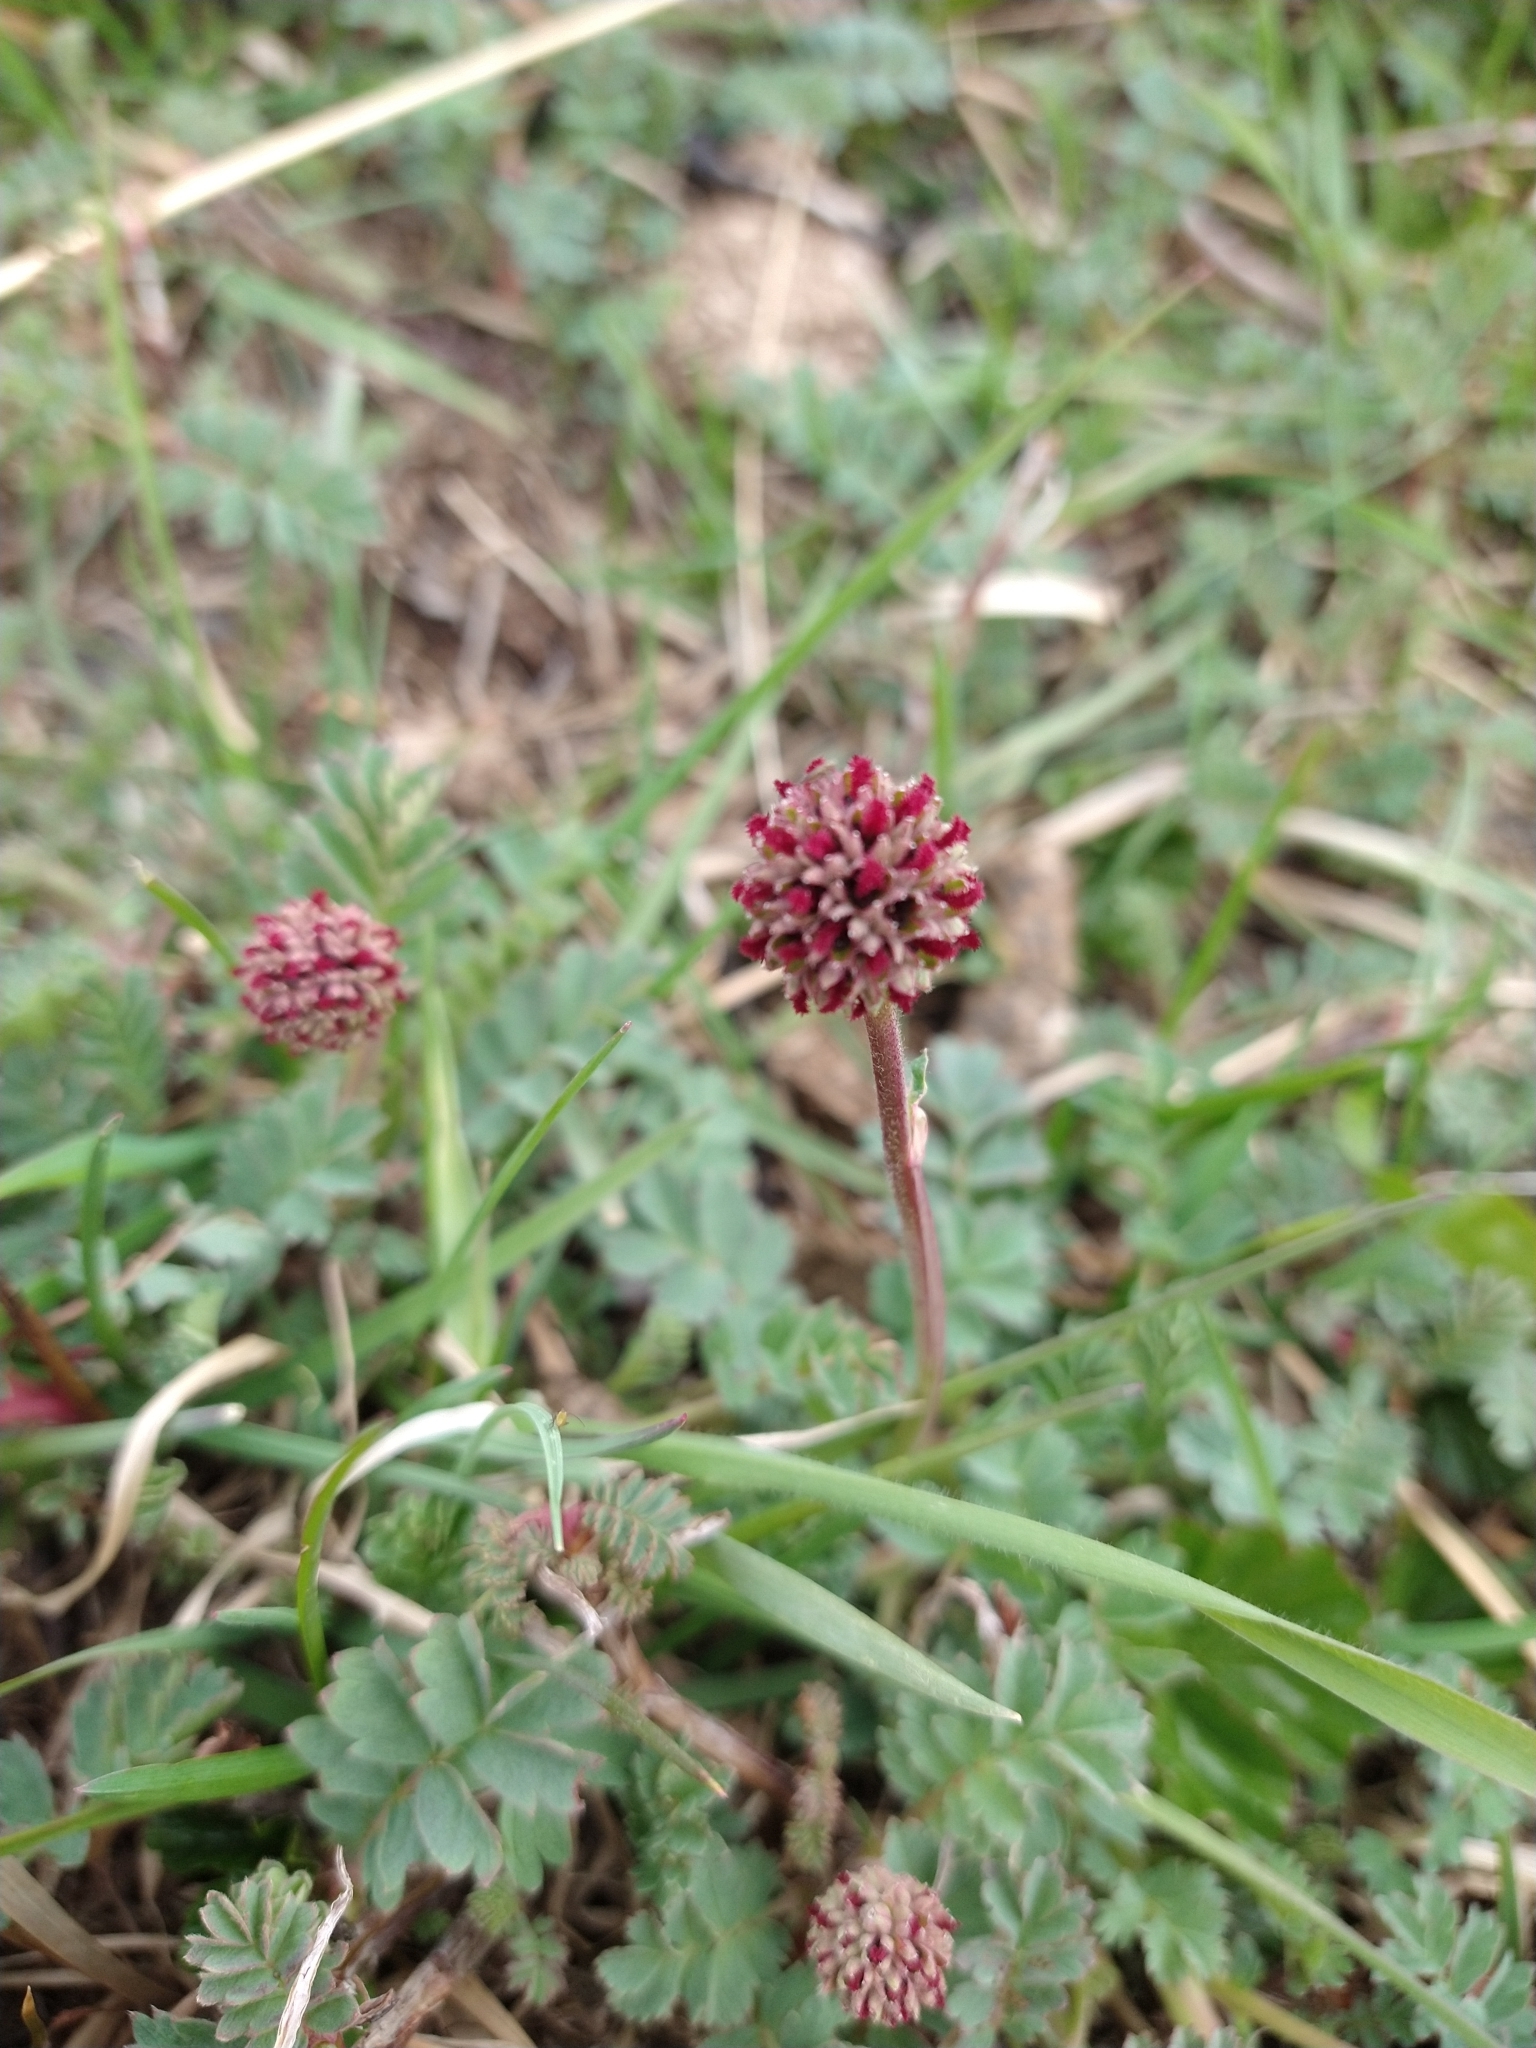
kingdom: Plantae
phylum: Tracheophyta
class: Magnoliopsida
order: Rosales
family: Rosaceae
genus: Acaena
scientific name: Acaena magellanica
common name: New zealand burr
